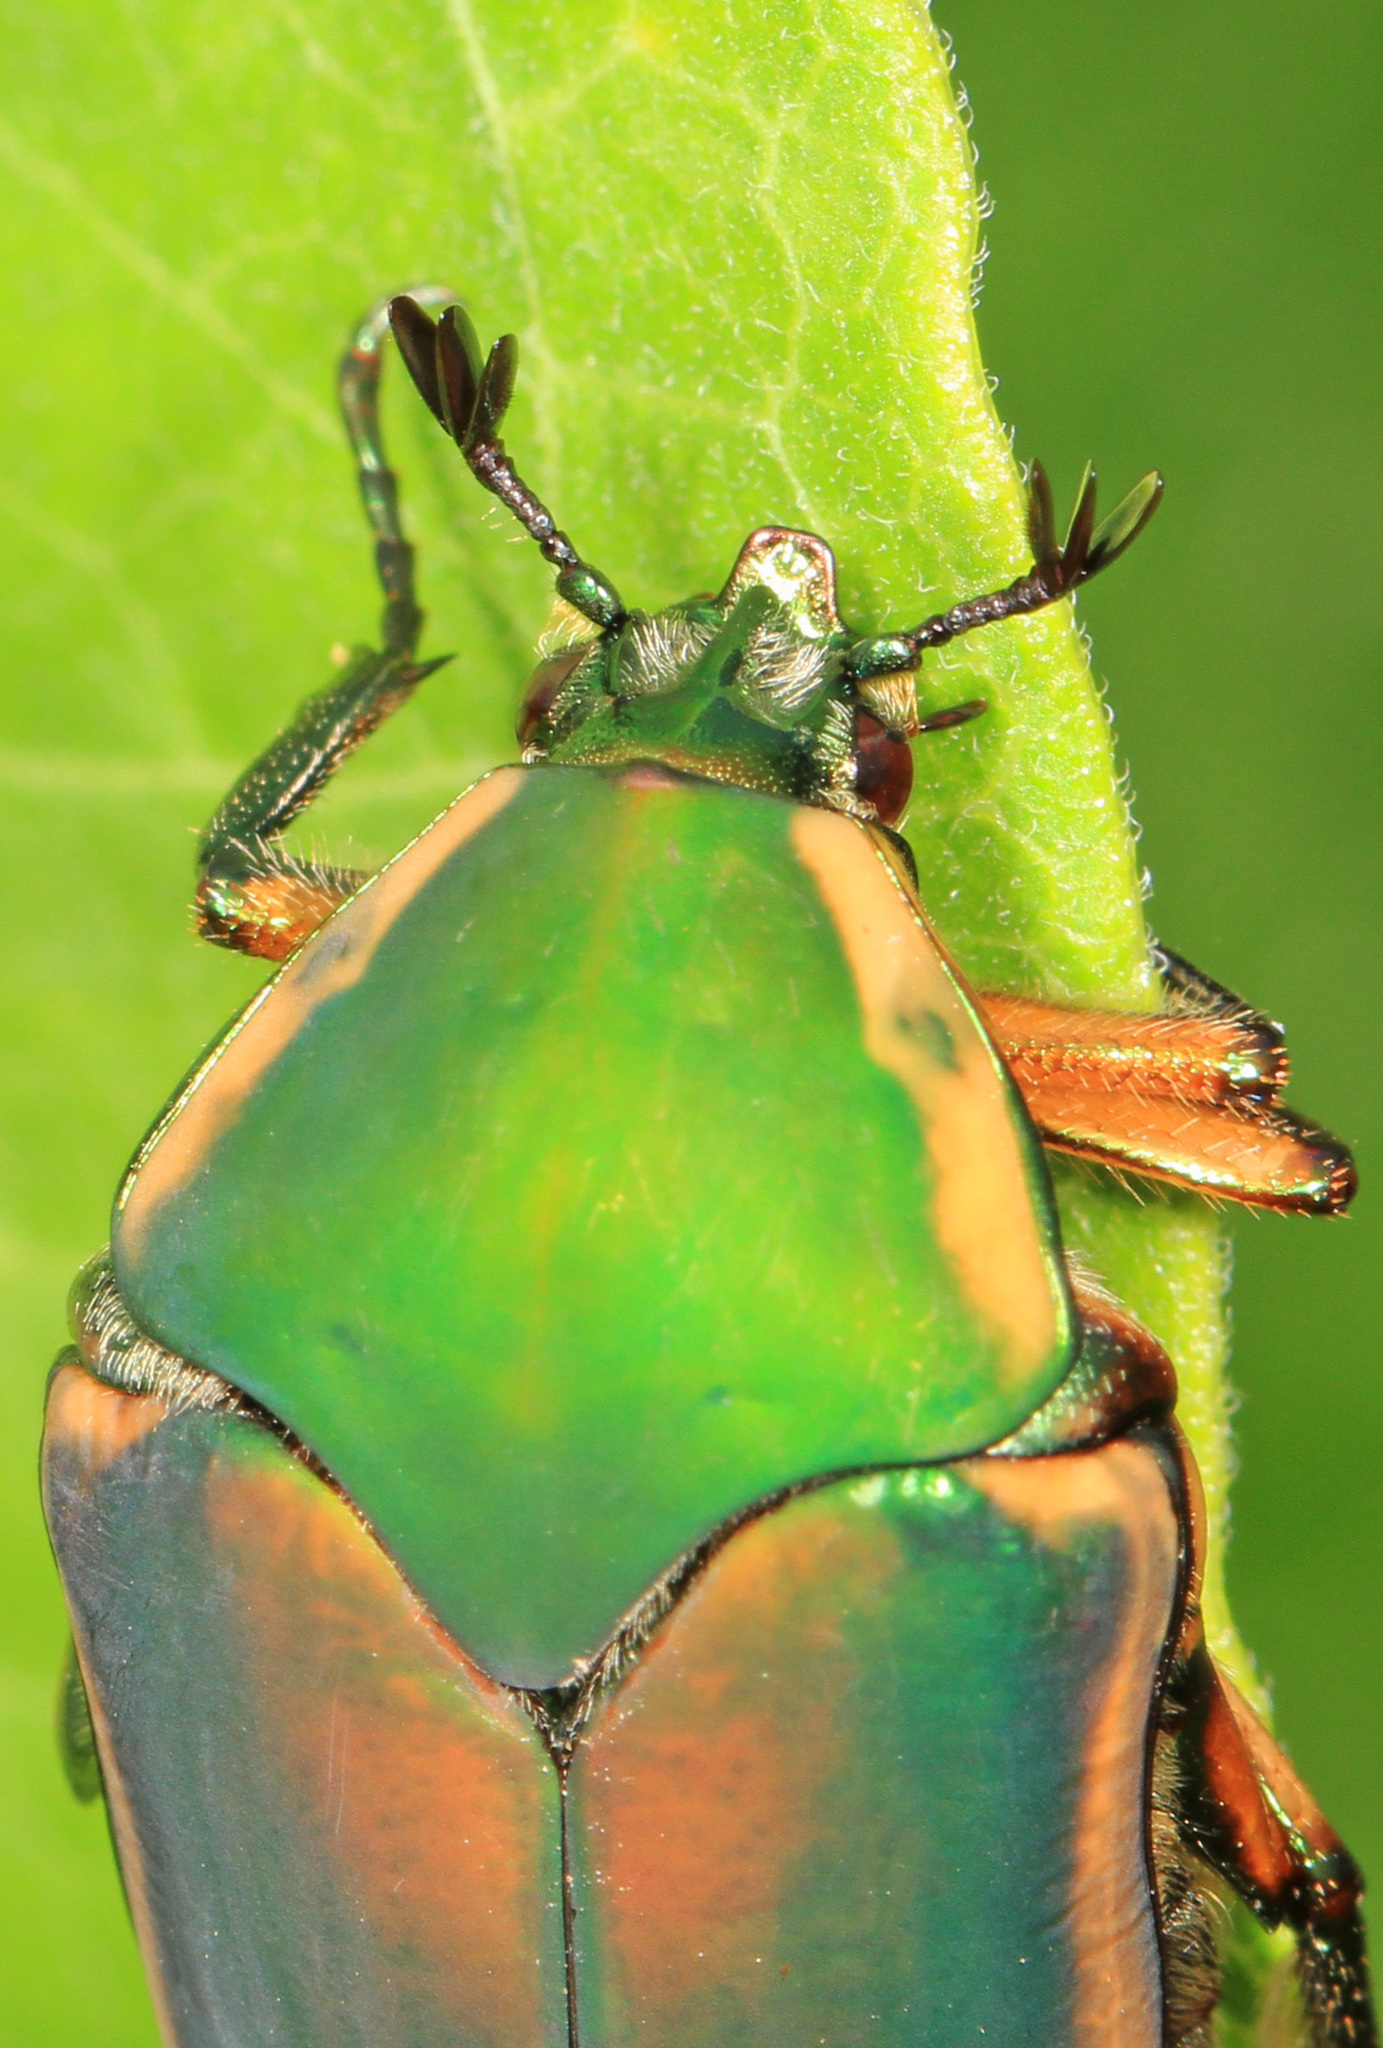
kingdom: Animalia
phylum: Arthropoda
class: Insecta
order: Coleoptera
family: Scarabaeidae
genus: Cotinis
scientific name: Cotinis nitida
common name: Common green june beetle
